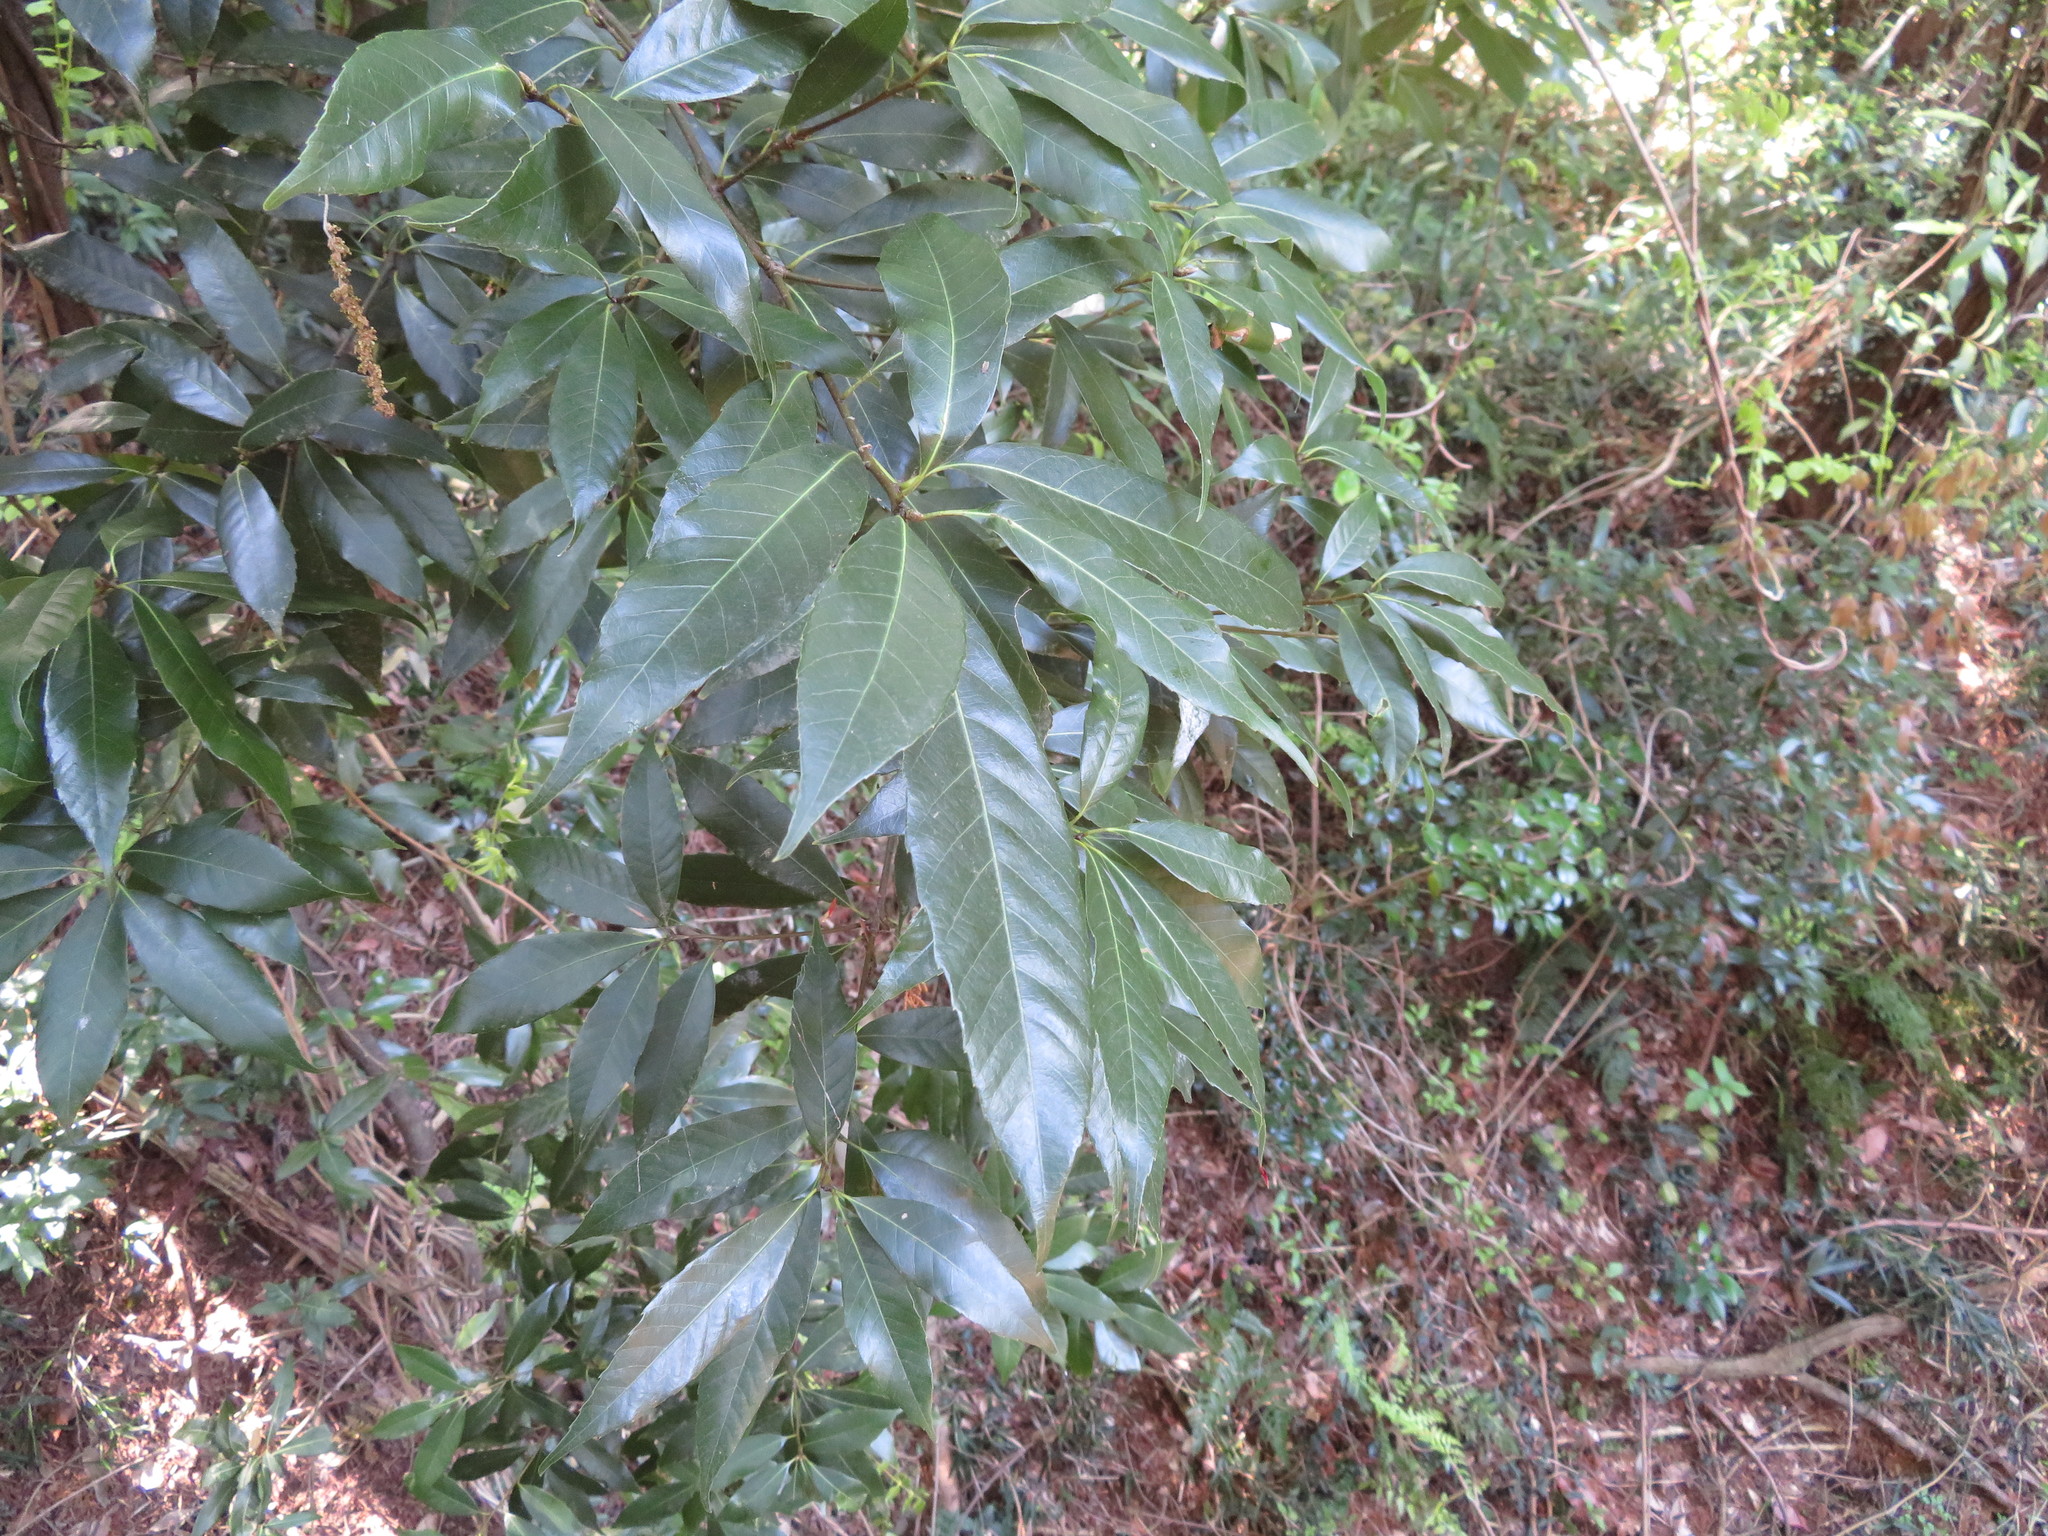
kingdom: Plantae
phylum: Tracheophyta
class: Magnoliopsida
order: Fagales
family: Fagaceae
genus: Quercus
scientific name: Quercus myrsinifolia
